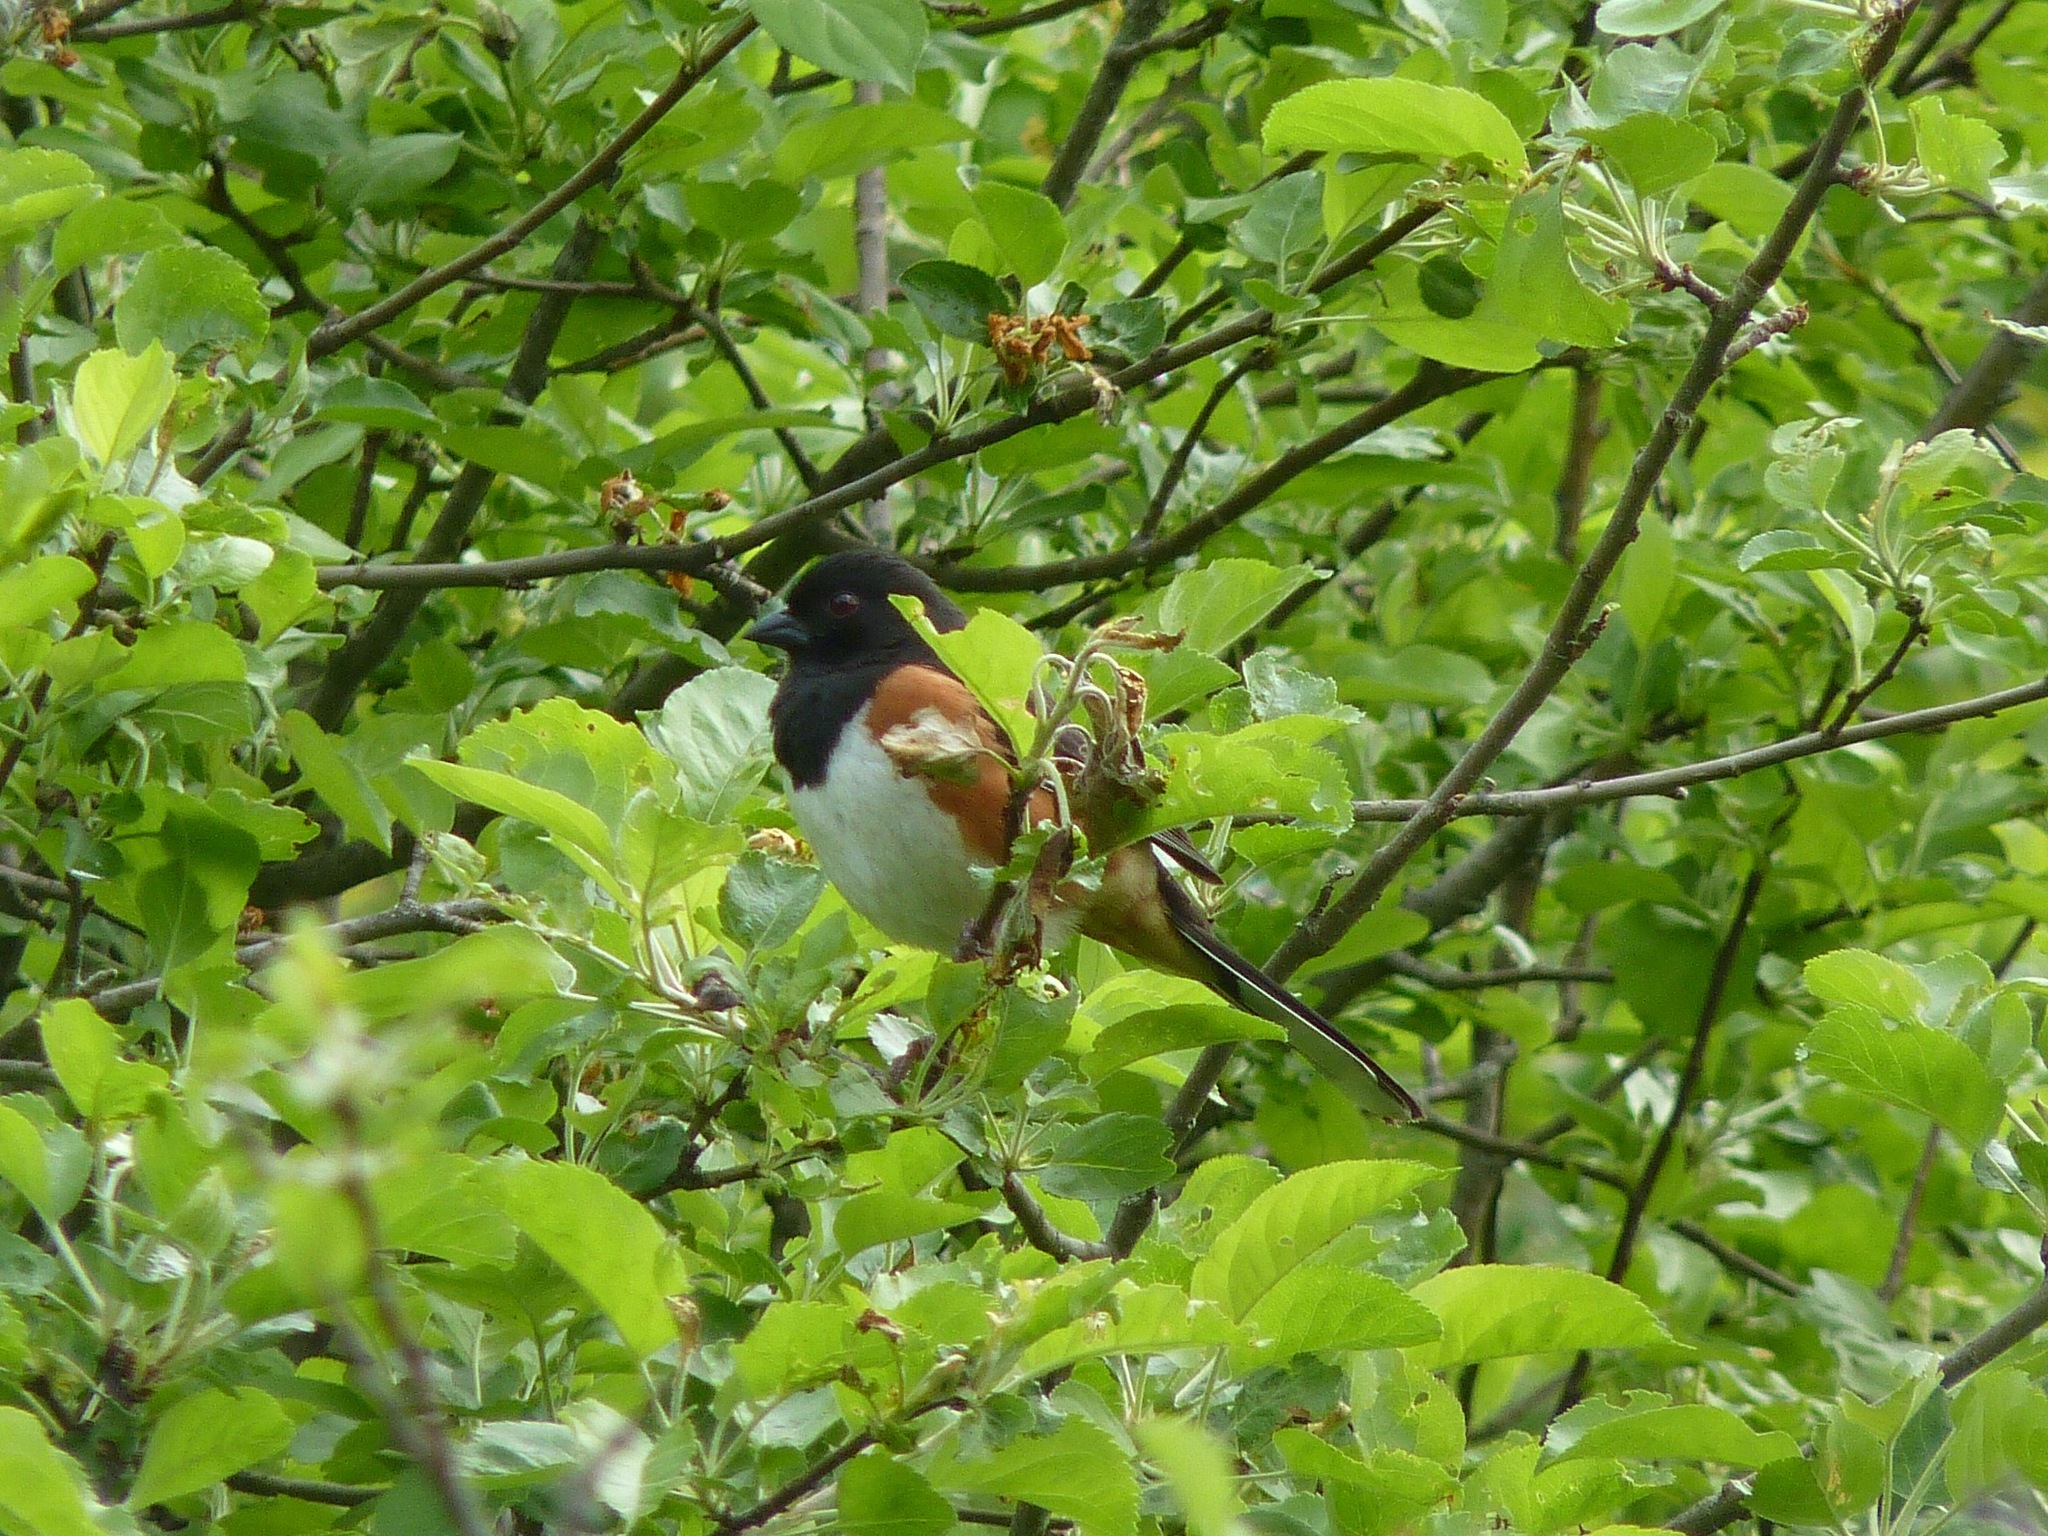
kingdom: Animalia
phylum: Chordata
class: Aves
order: Passeriformes
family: Passerellidae
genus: Pipilo
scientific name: Pipilo erythrophthalmus
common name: Eastern towhee
